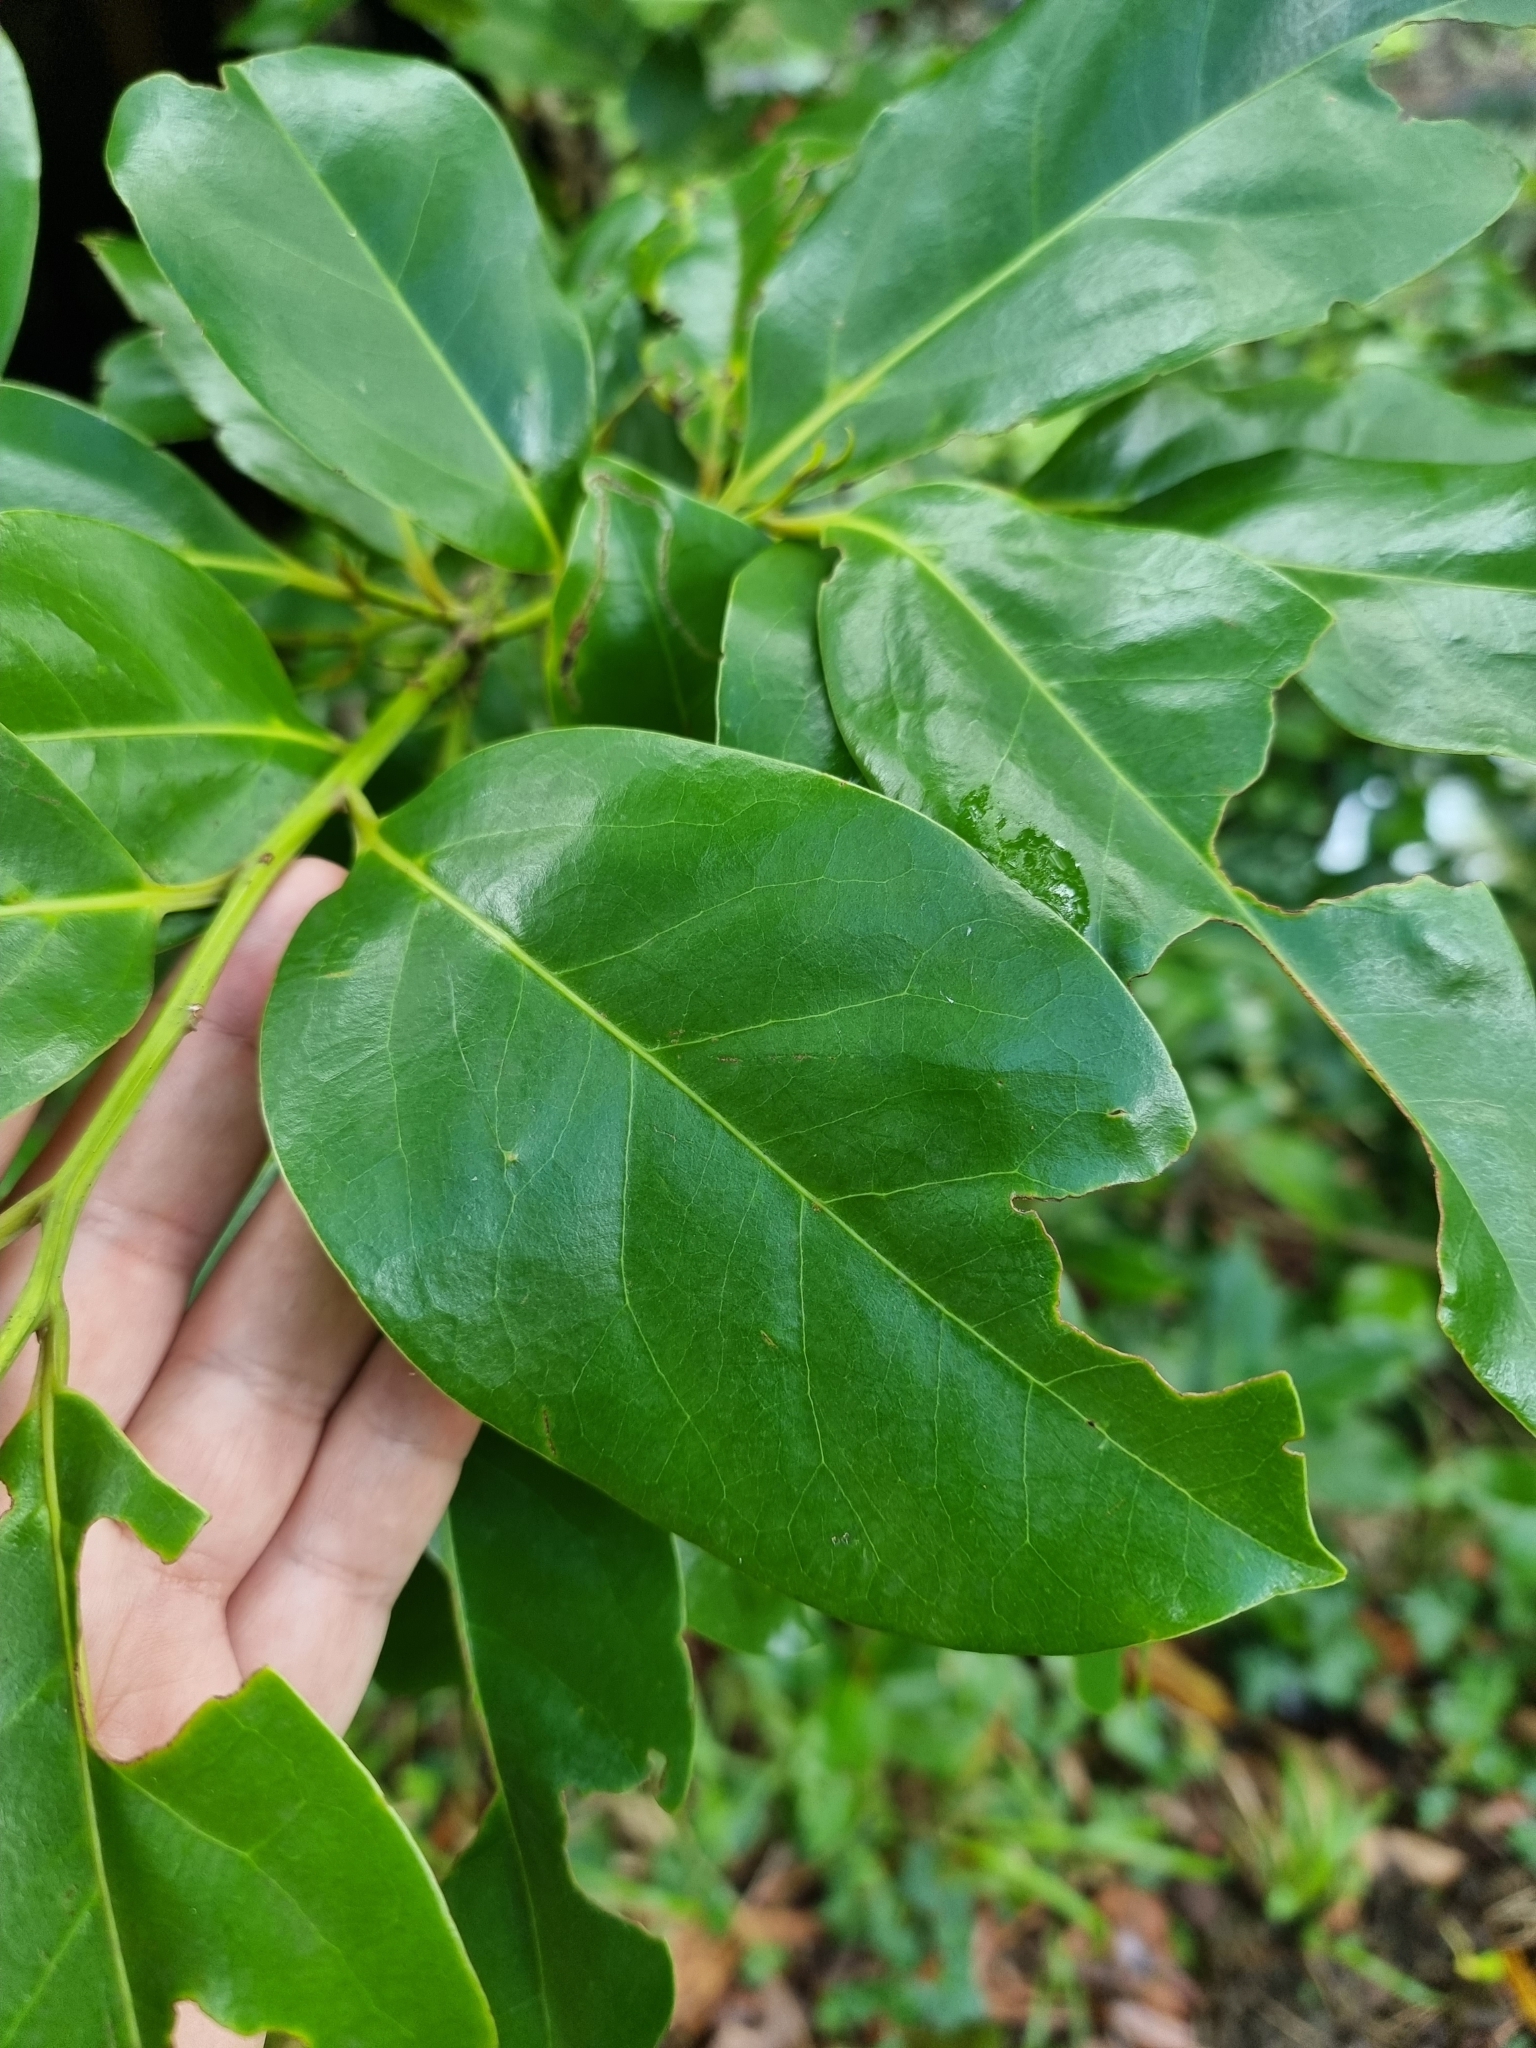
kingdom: Plantae
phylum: Tracheophyta
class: Magnoliopsida
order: Laurales
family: Lauraceae
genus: Mespilodaphne
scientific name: Mespilodaphne foetens
